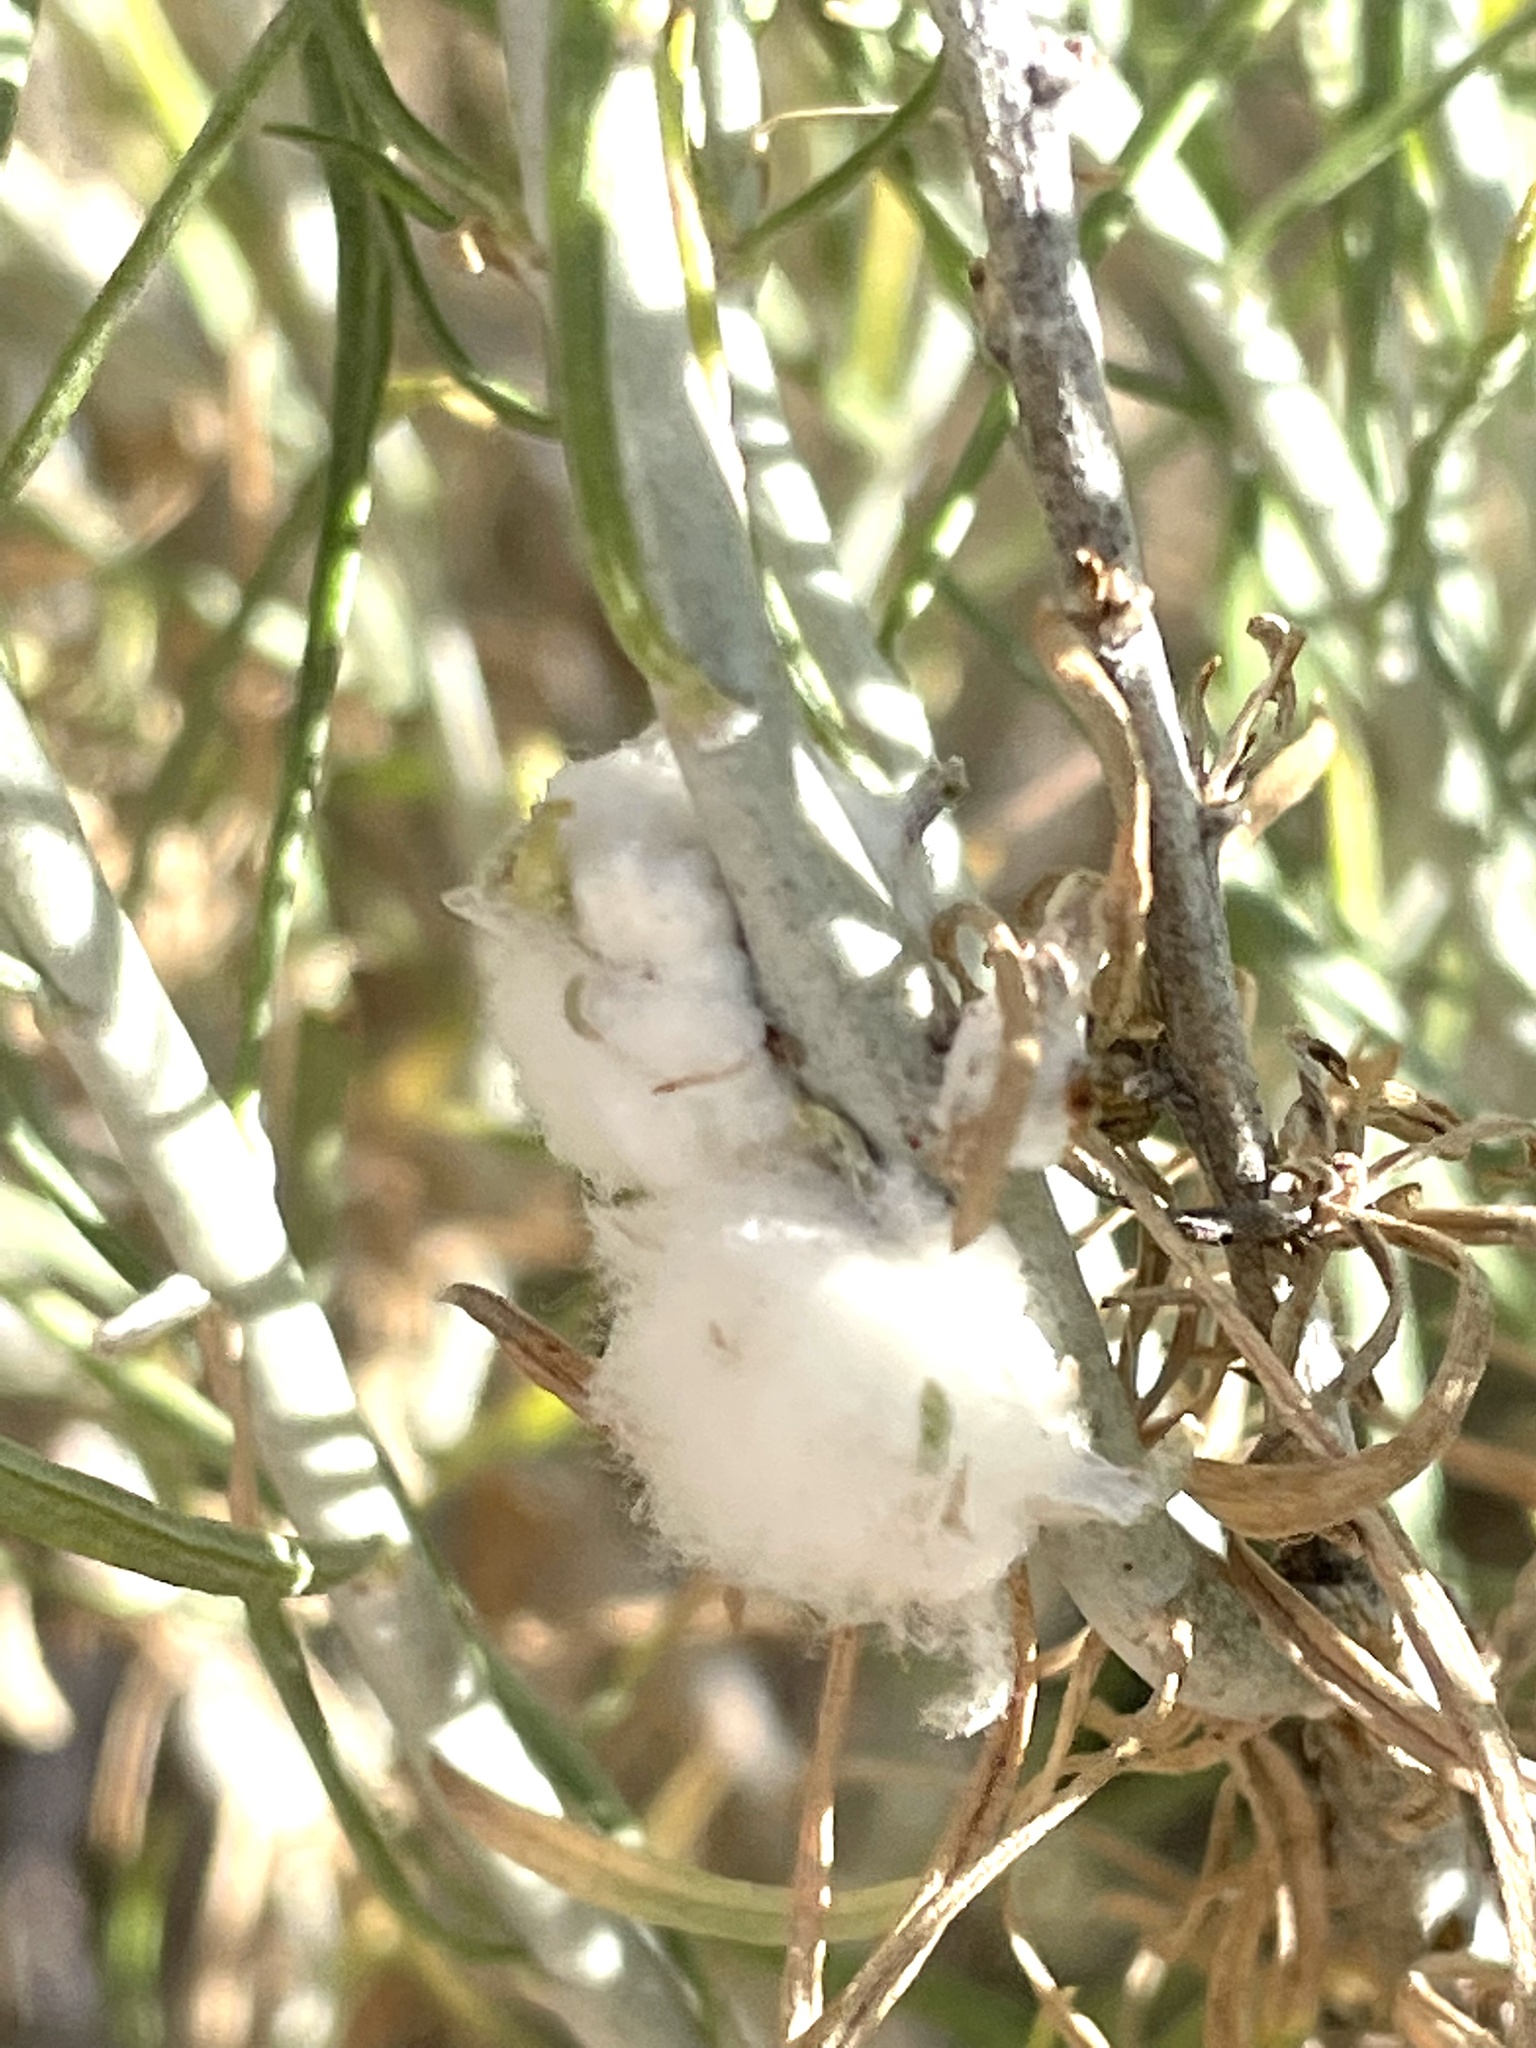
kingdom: Animalia
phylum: Arthropoda
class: Insecta
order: Diptera
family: Tephritidae
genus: Aciurina
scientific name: Aciurina bigeloviae
